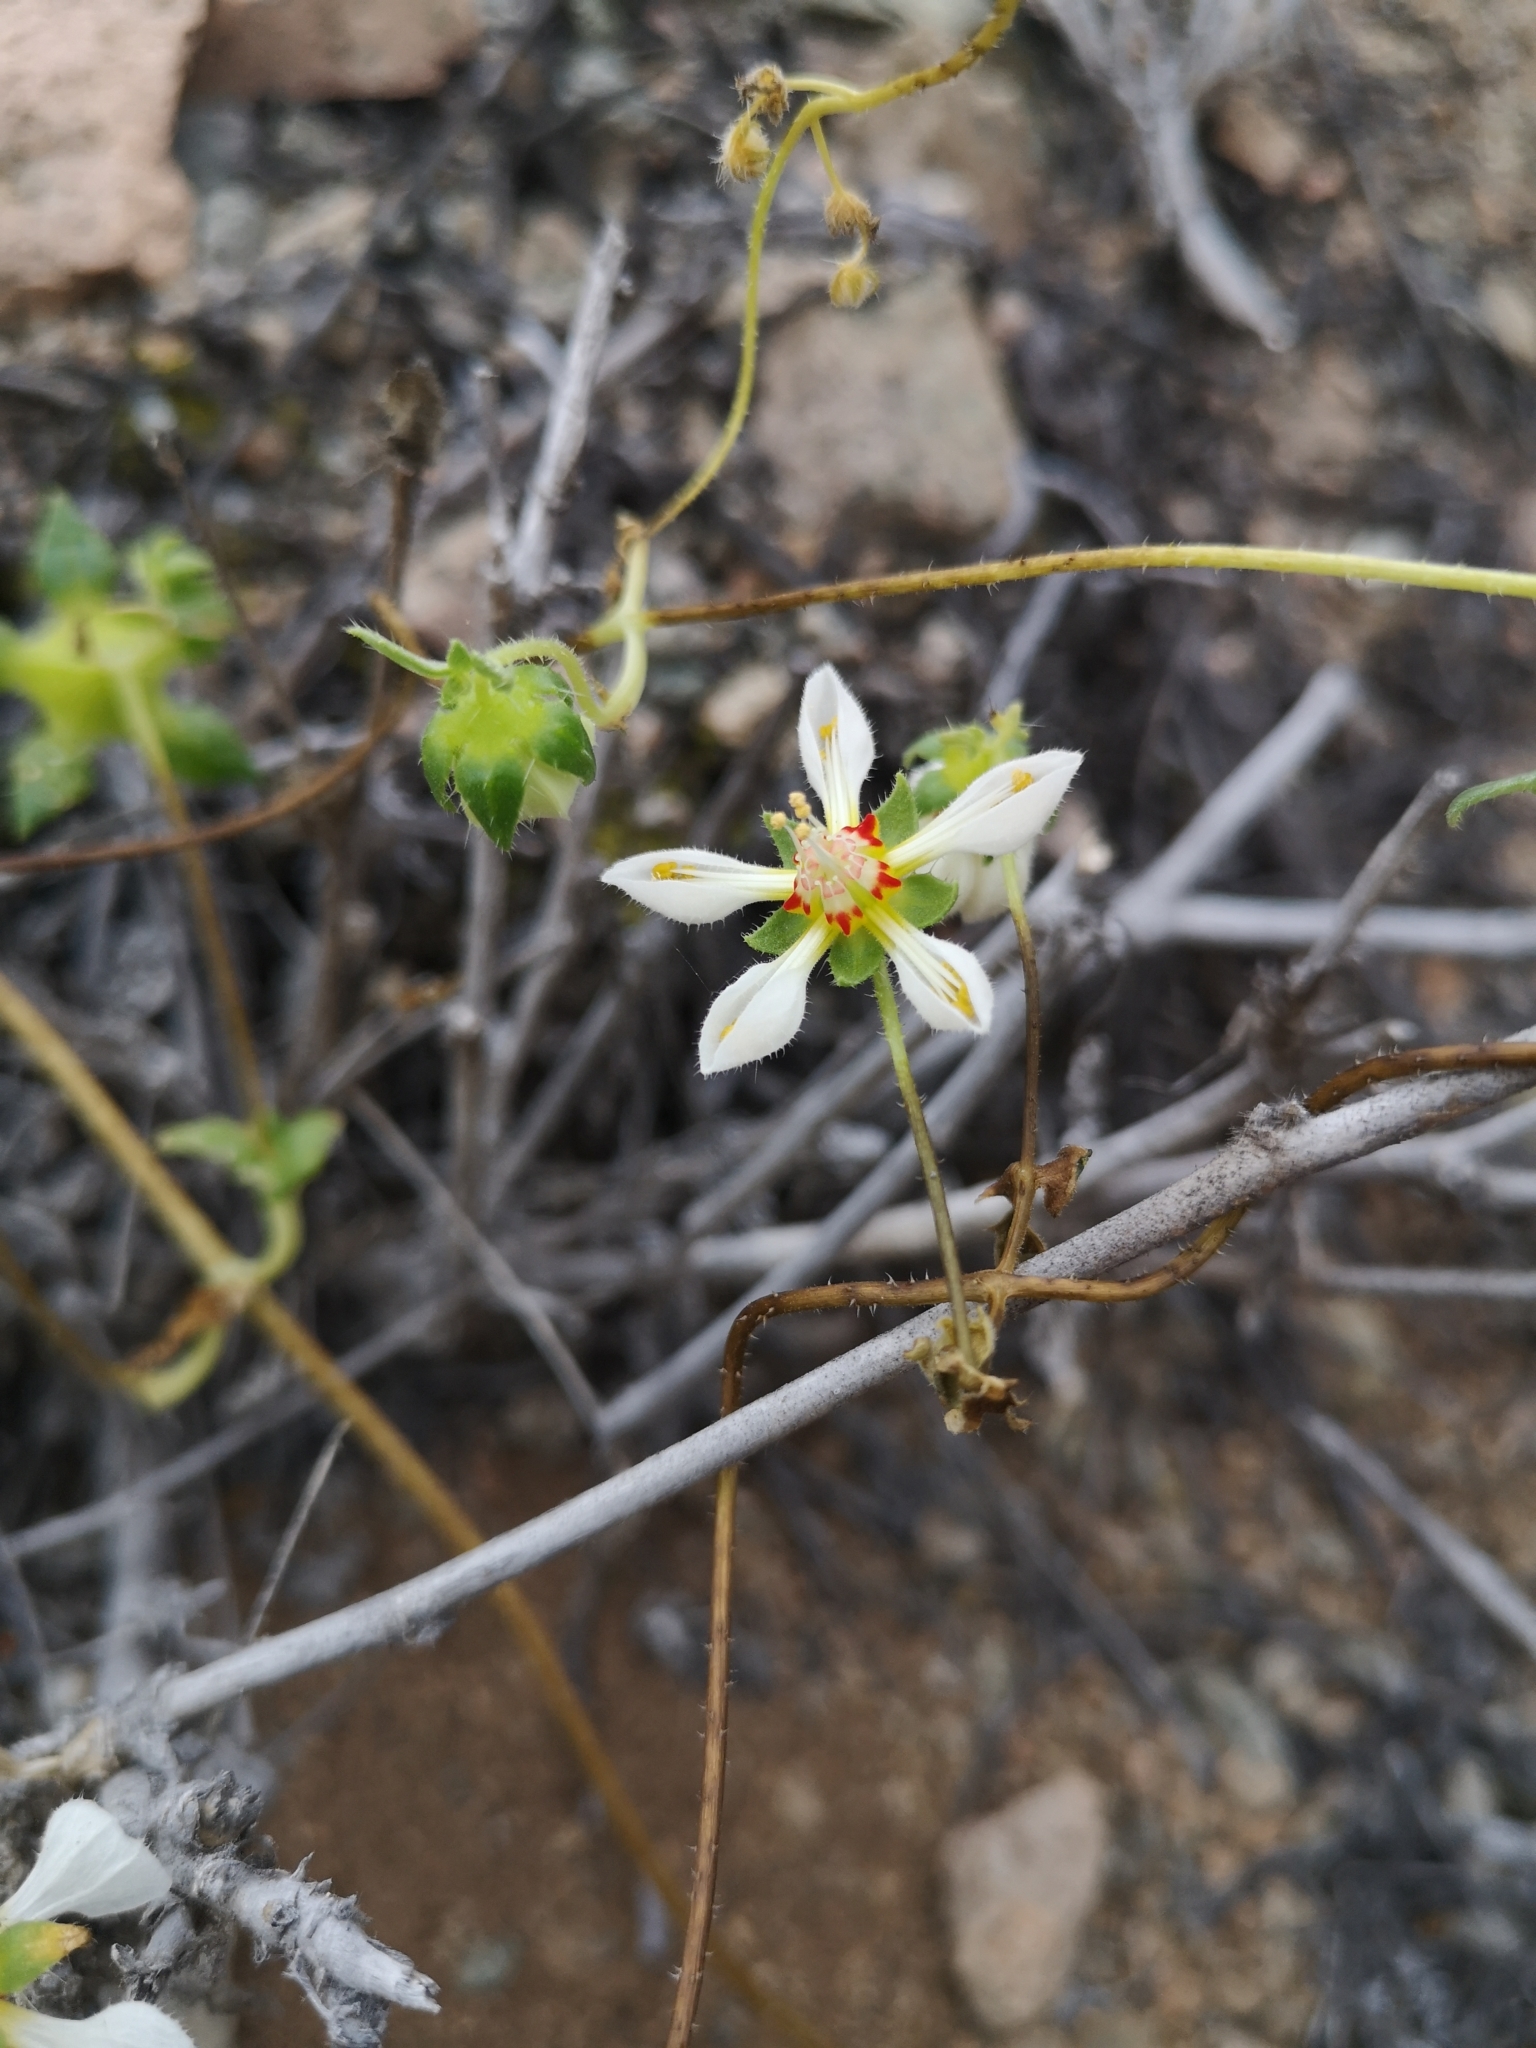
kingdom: Plantae
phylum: Tracheophyta
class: Magnoliopsida
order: Cornales
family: Loasaceae
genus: Loasa
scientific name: Loasa elongata
